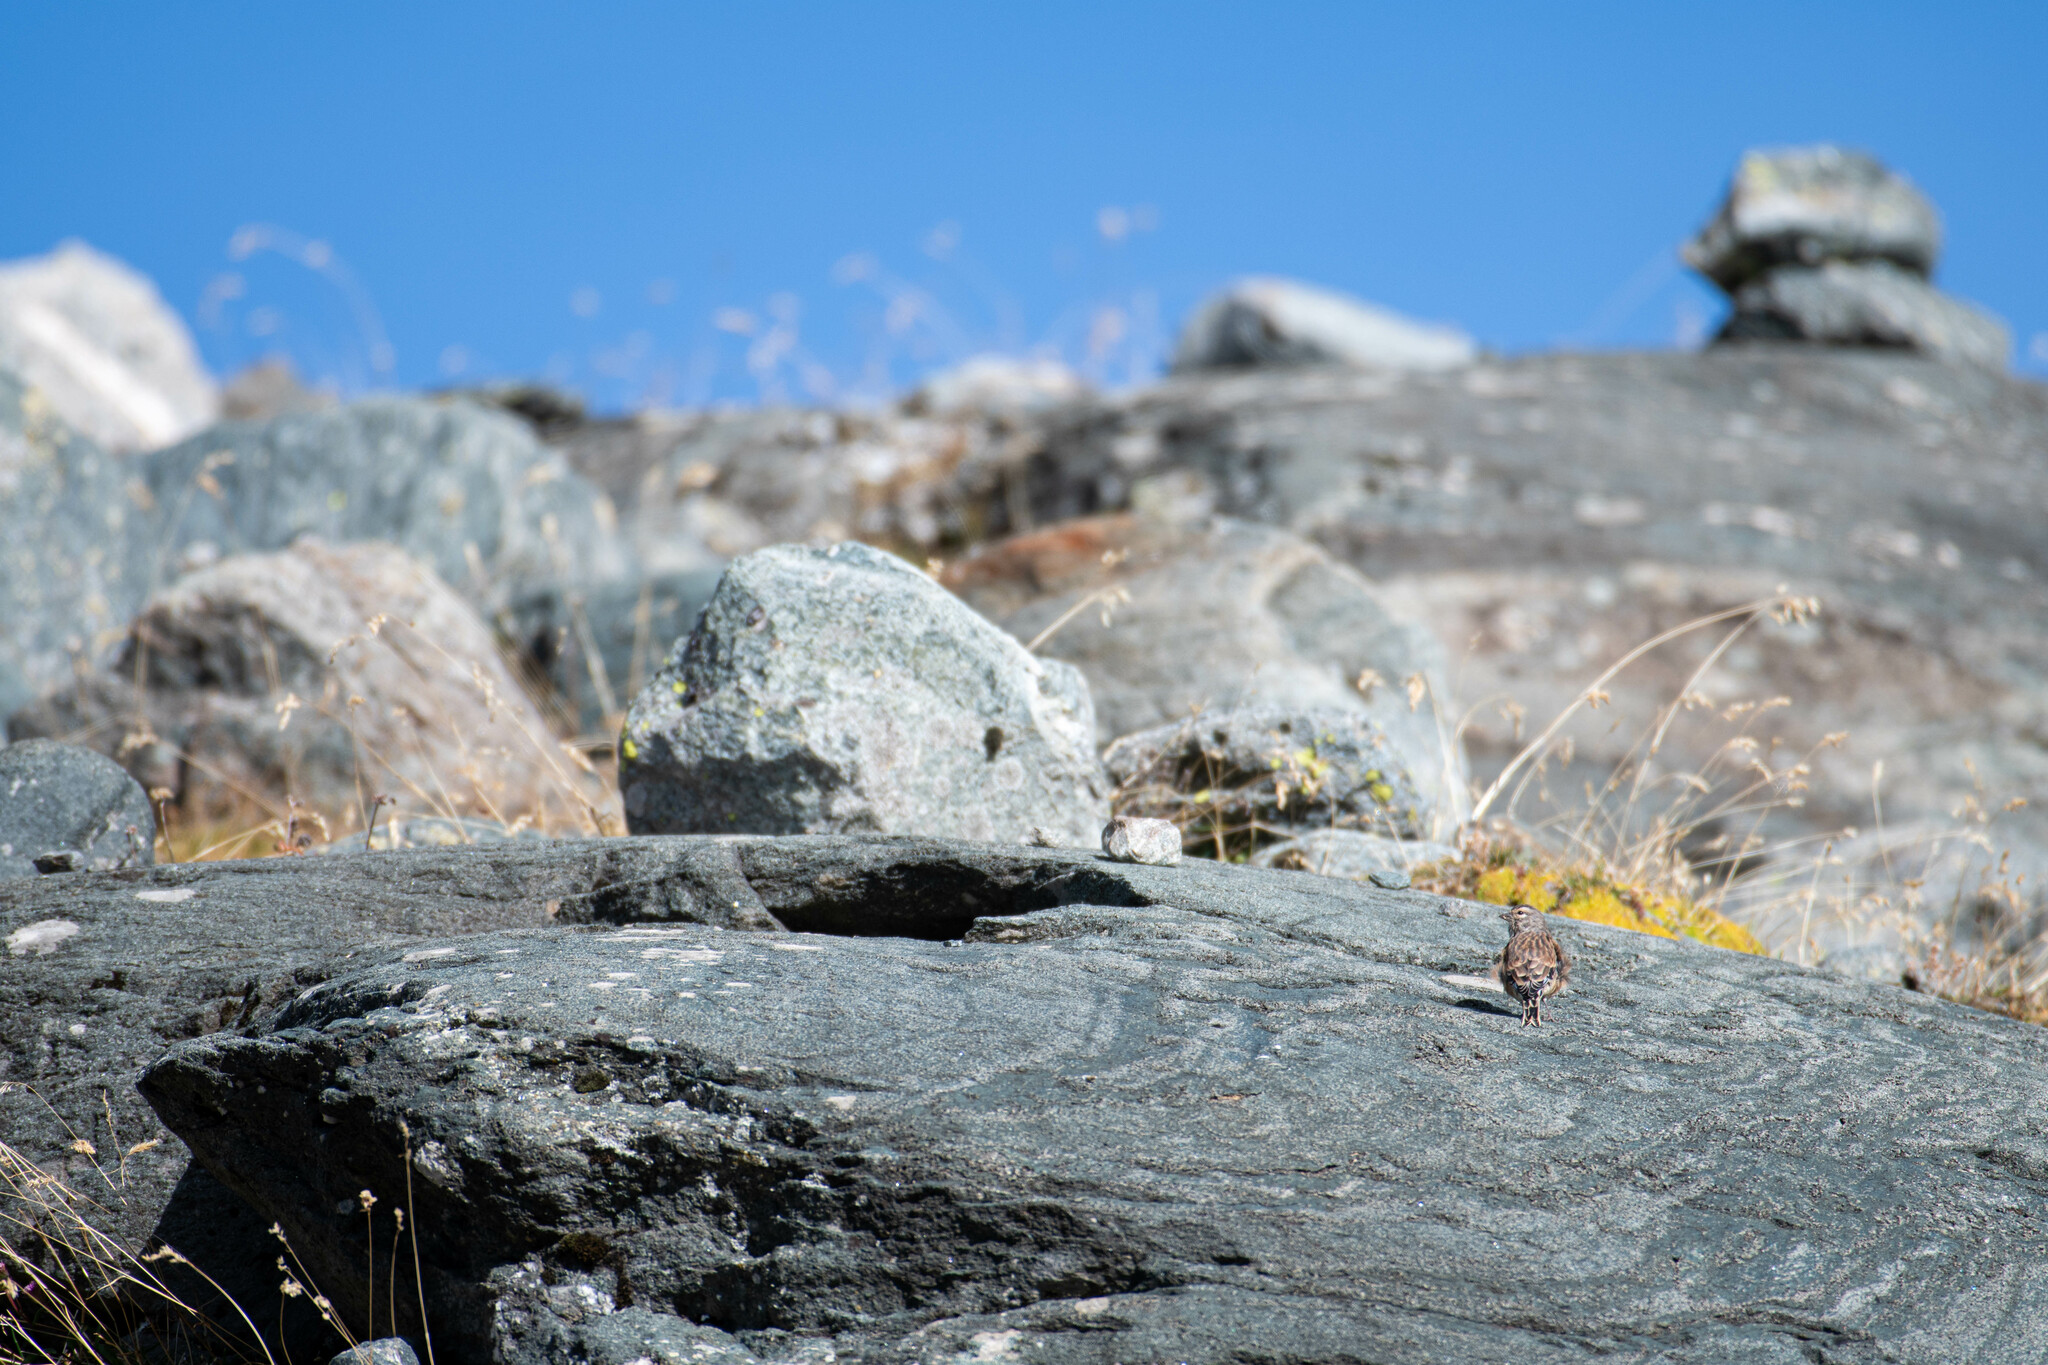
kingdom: Animalia
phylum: Chordata
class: Aves
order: Passeriformes
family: Fringillidae
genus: Linaria
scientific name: Linaria cannabina
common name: Common linnet
